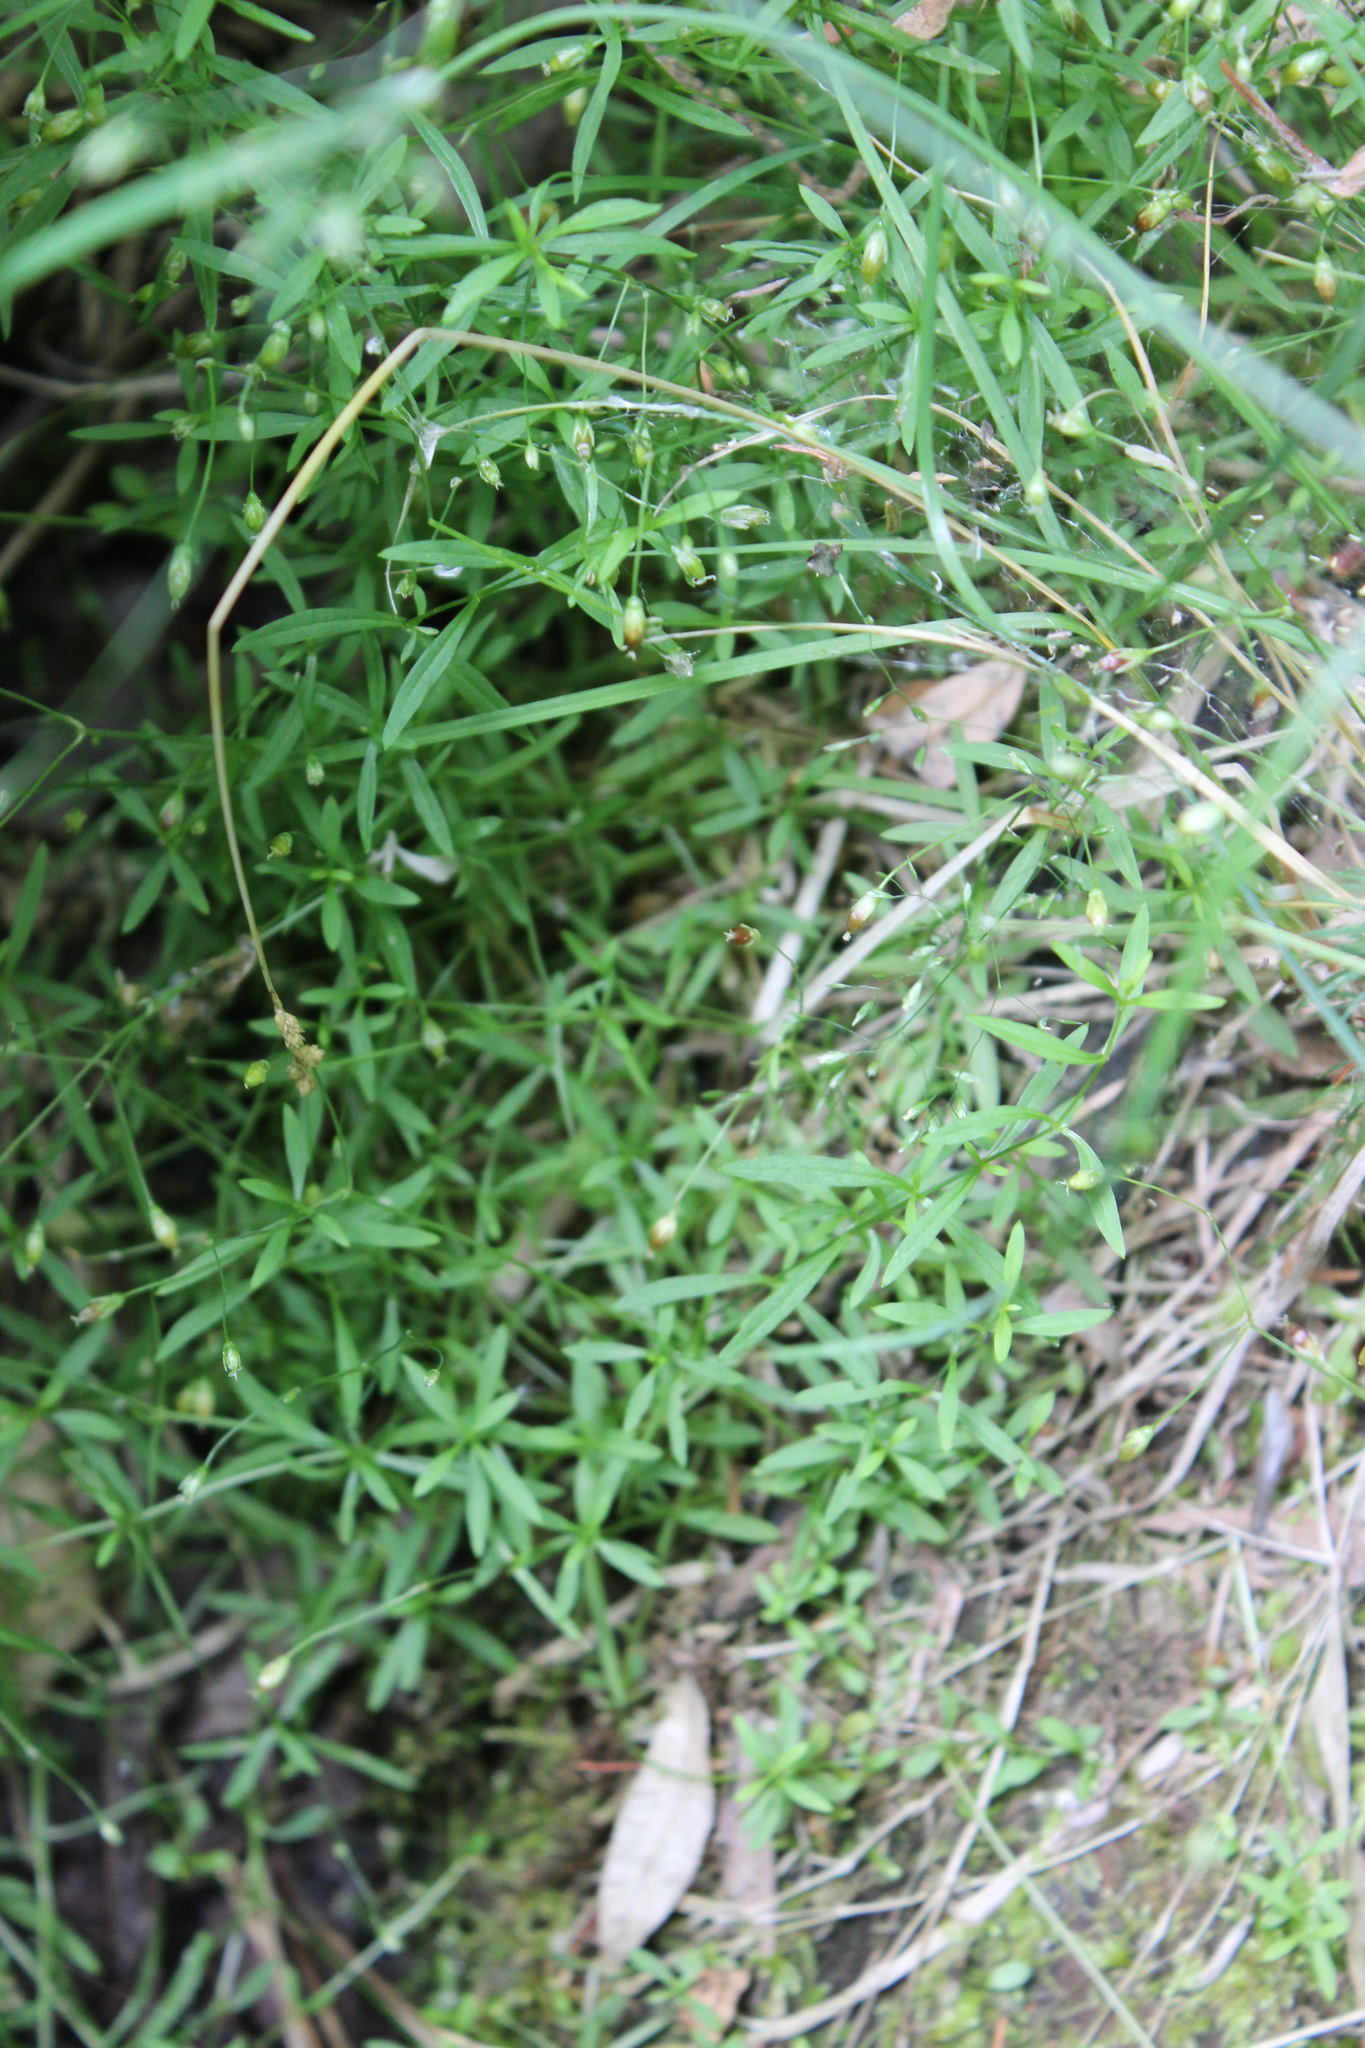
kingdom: Plantae
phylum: Tracheophyta
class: Magnoliopsida
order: Caryophyllales
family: Caryophyllaceae
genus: Stellaria
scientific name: Stellaria longifolia
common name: Long-leaved chickweed
